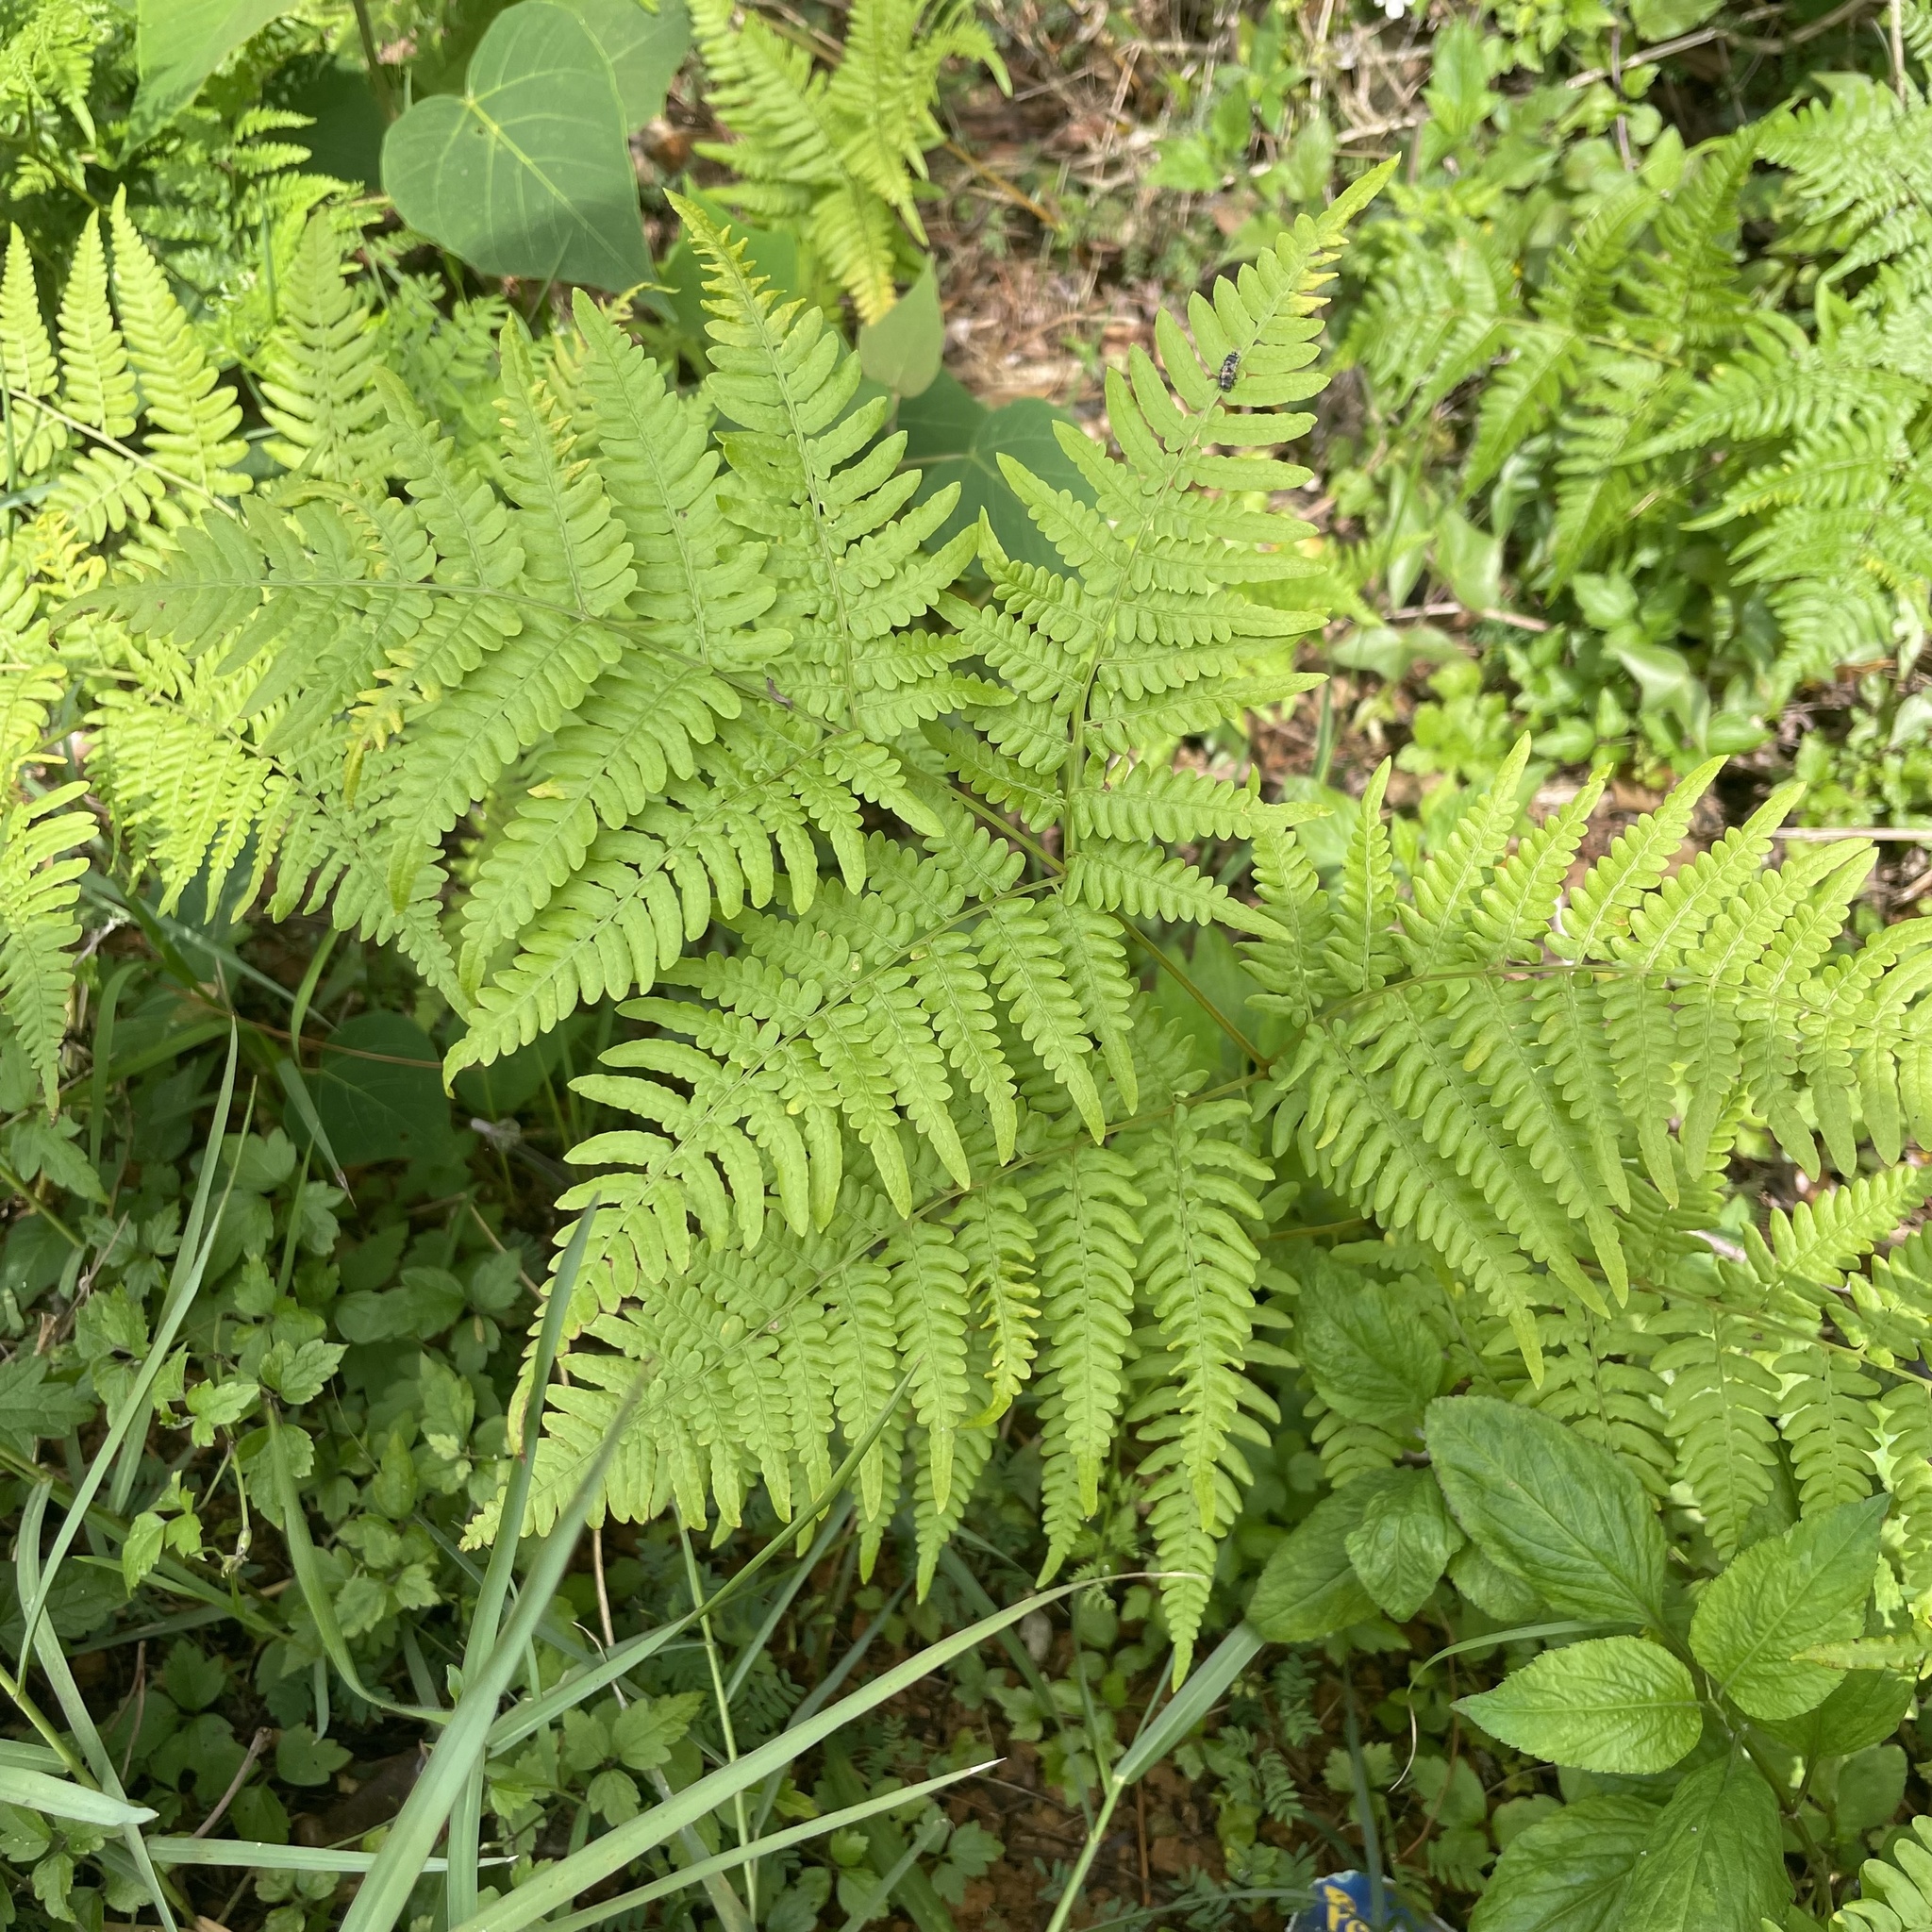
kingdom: Plantae
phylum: Tracheophyta
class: Polypodiopsida
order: Polypodiales
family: Dennstaedtiaceae
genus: Pteridium
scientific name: Pteridium aquilinum
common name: Bracken
